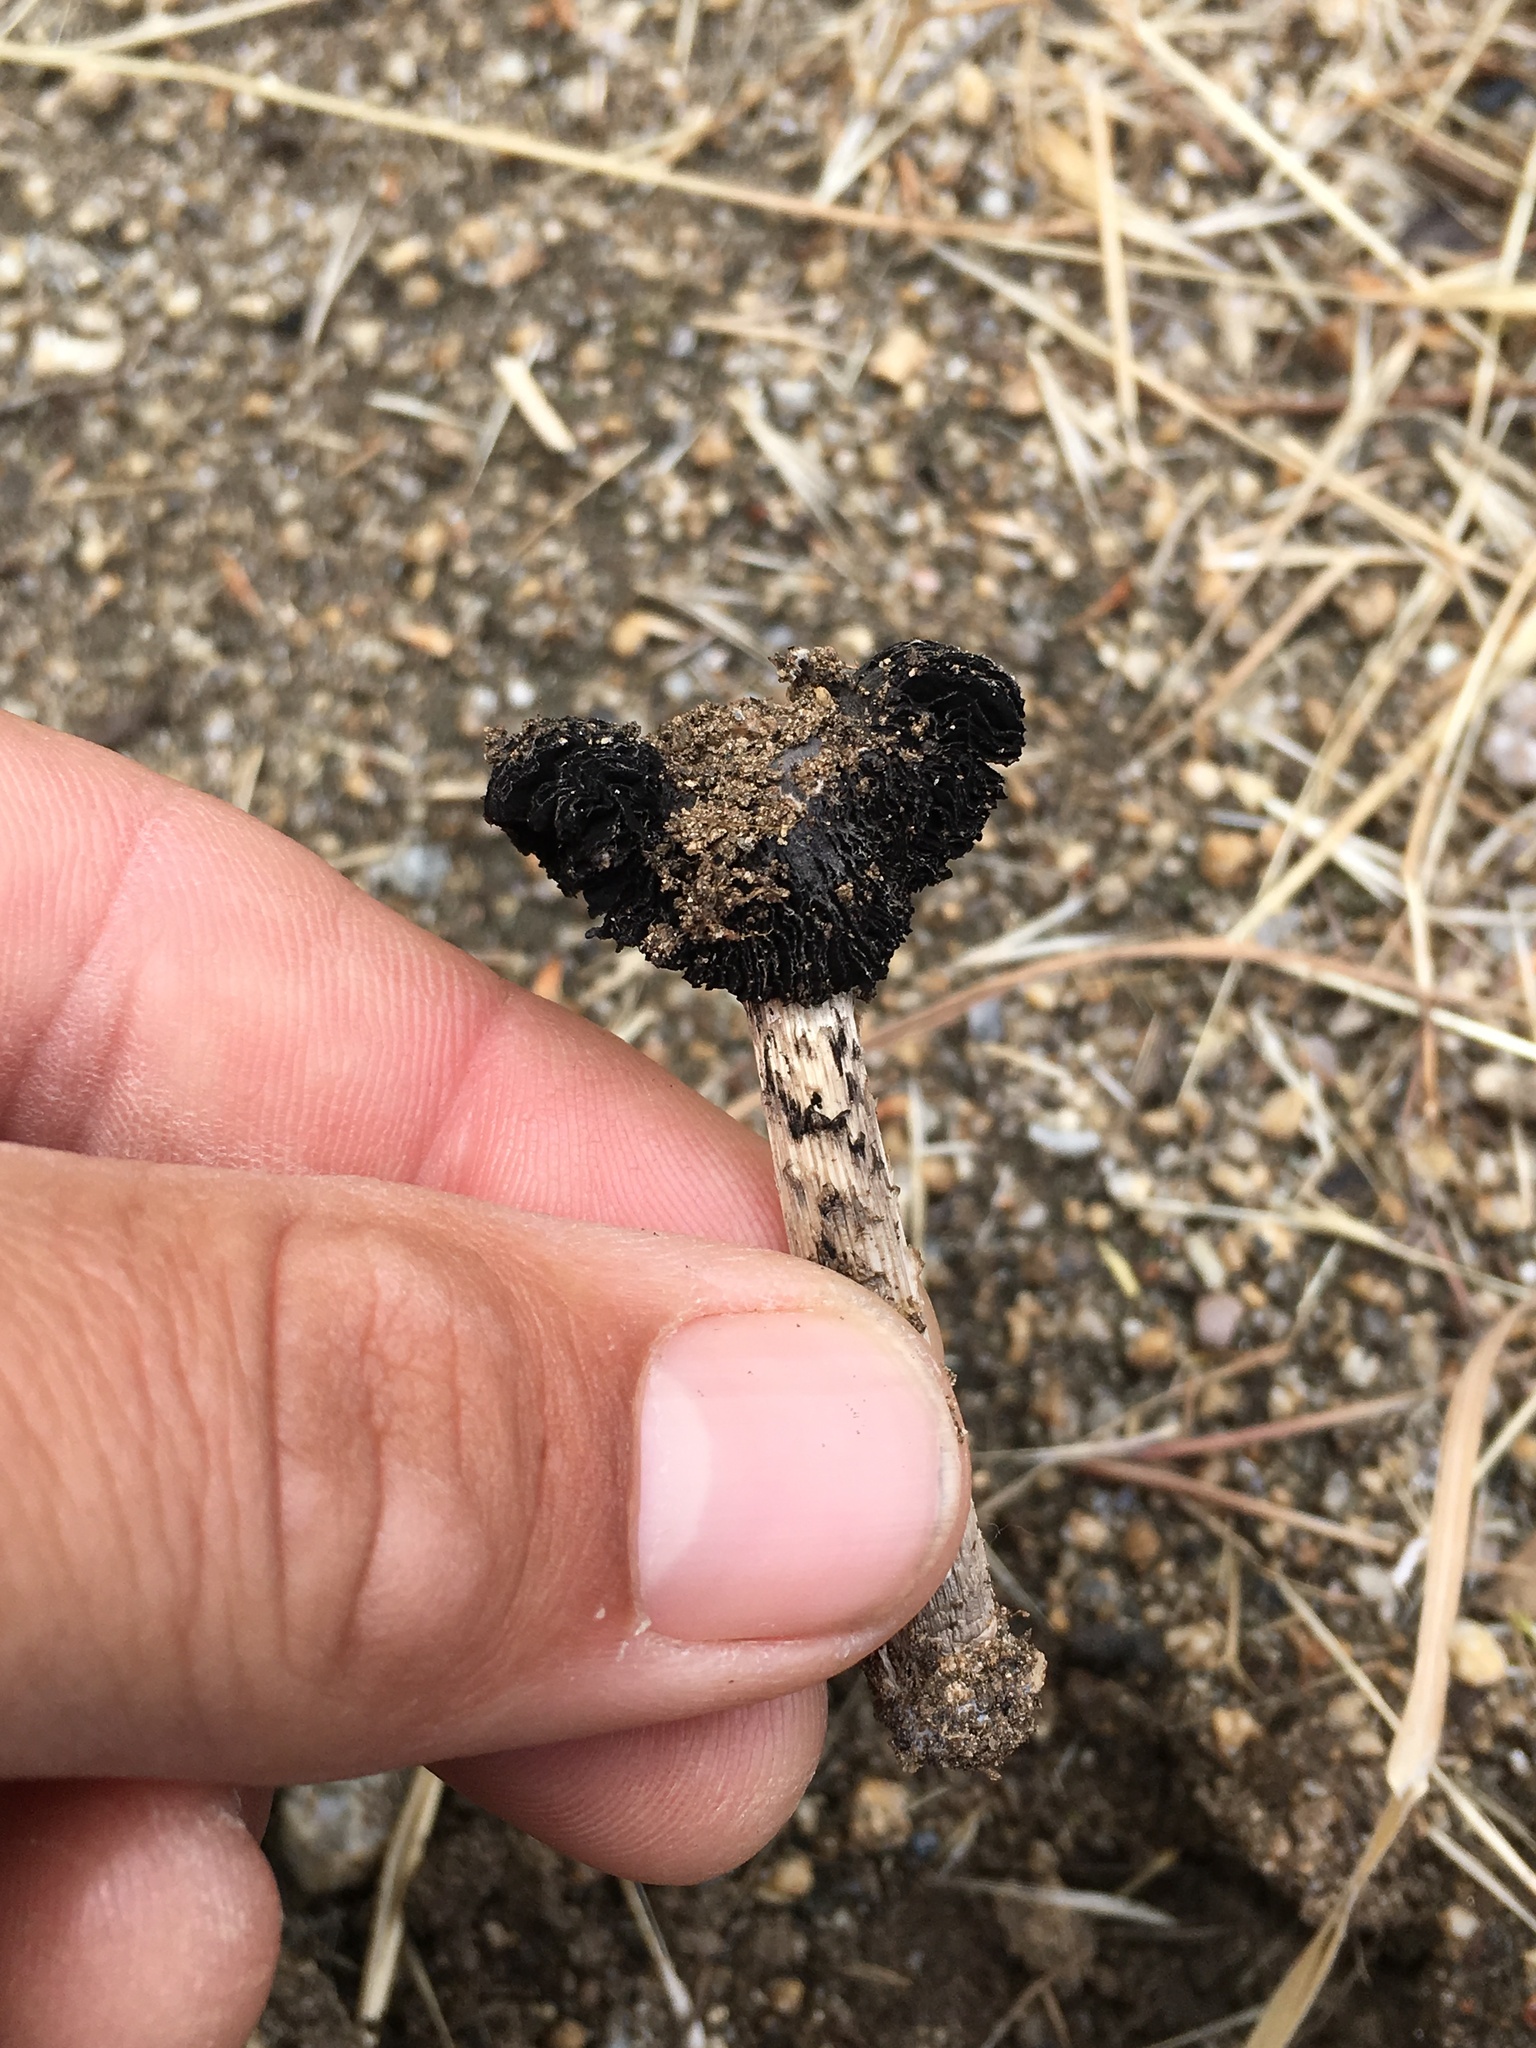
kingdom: Fungi
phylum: Basidiomycota
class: Agaricomycetes
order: Agaricales
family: Agaricaceae
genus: Montagnea
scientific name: Montagnea arenaria
